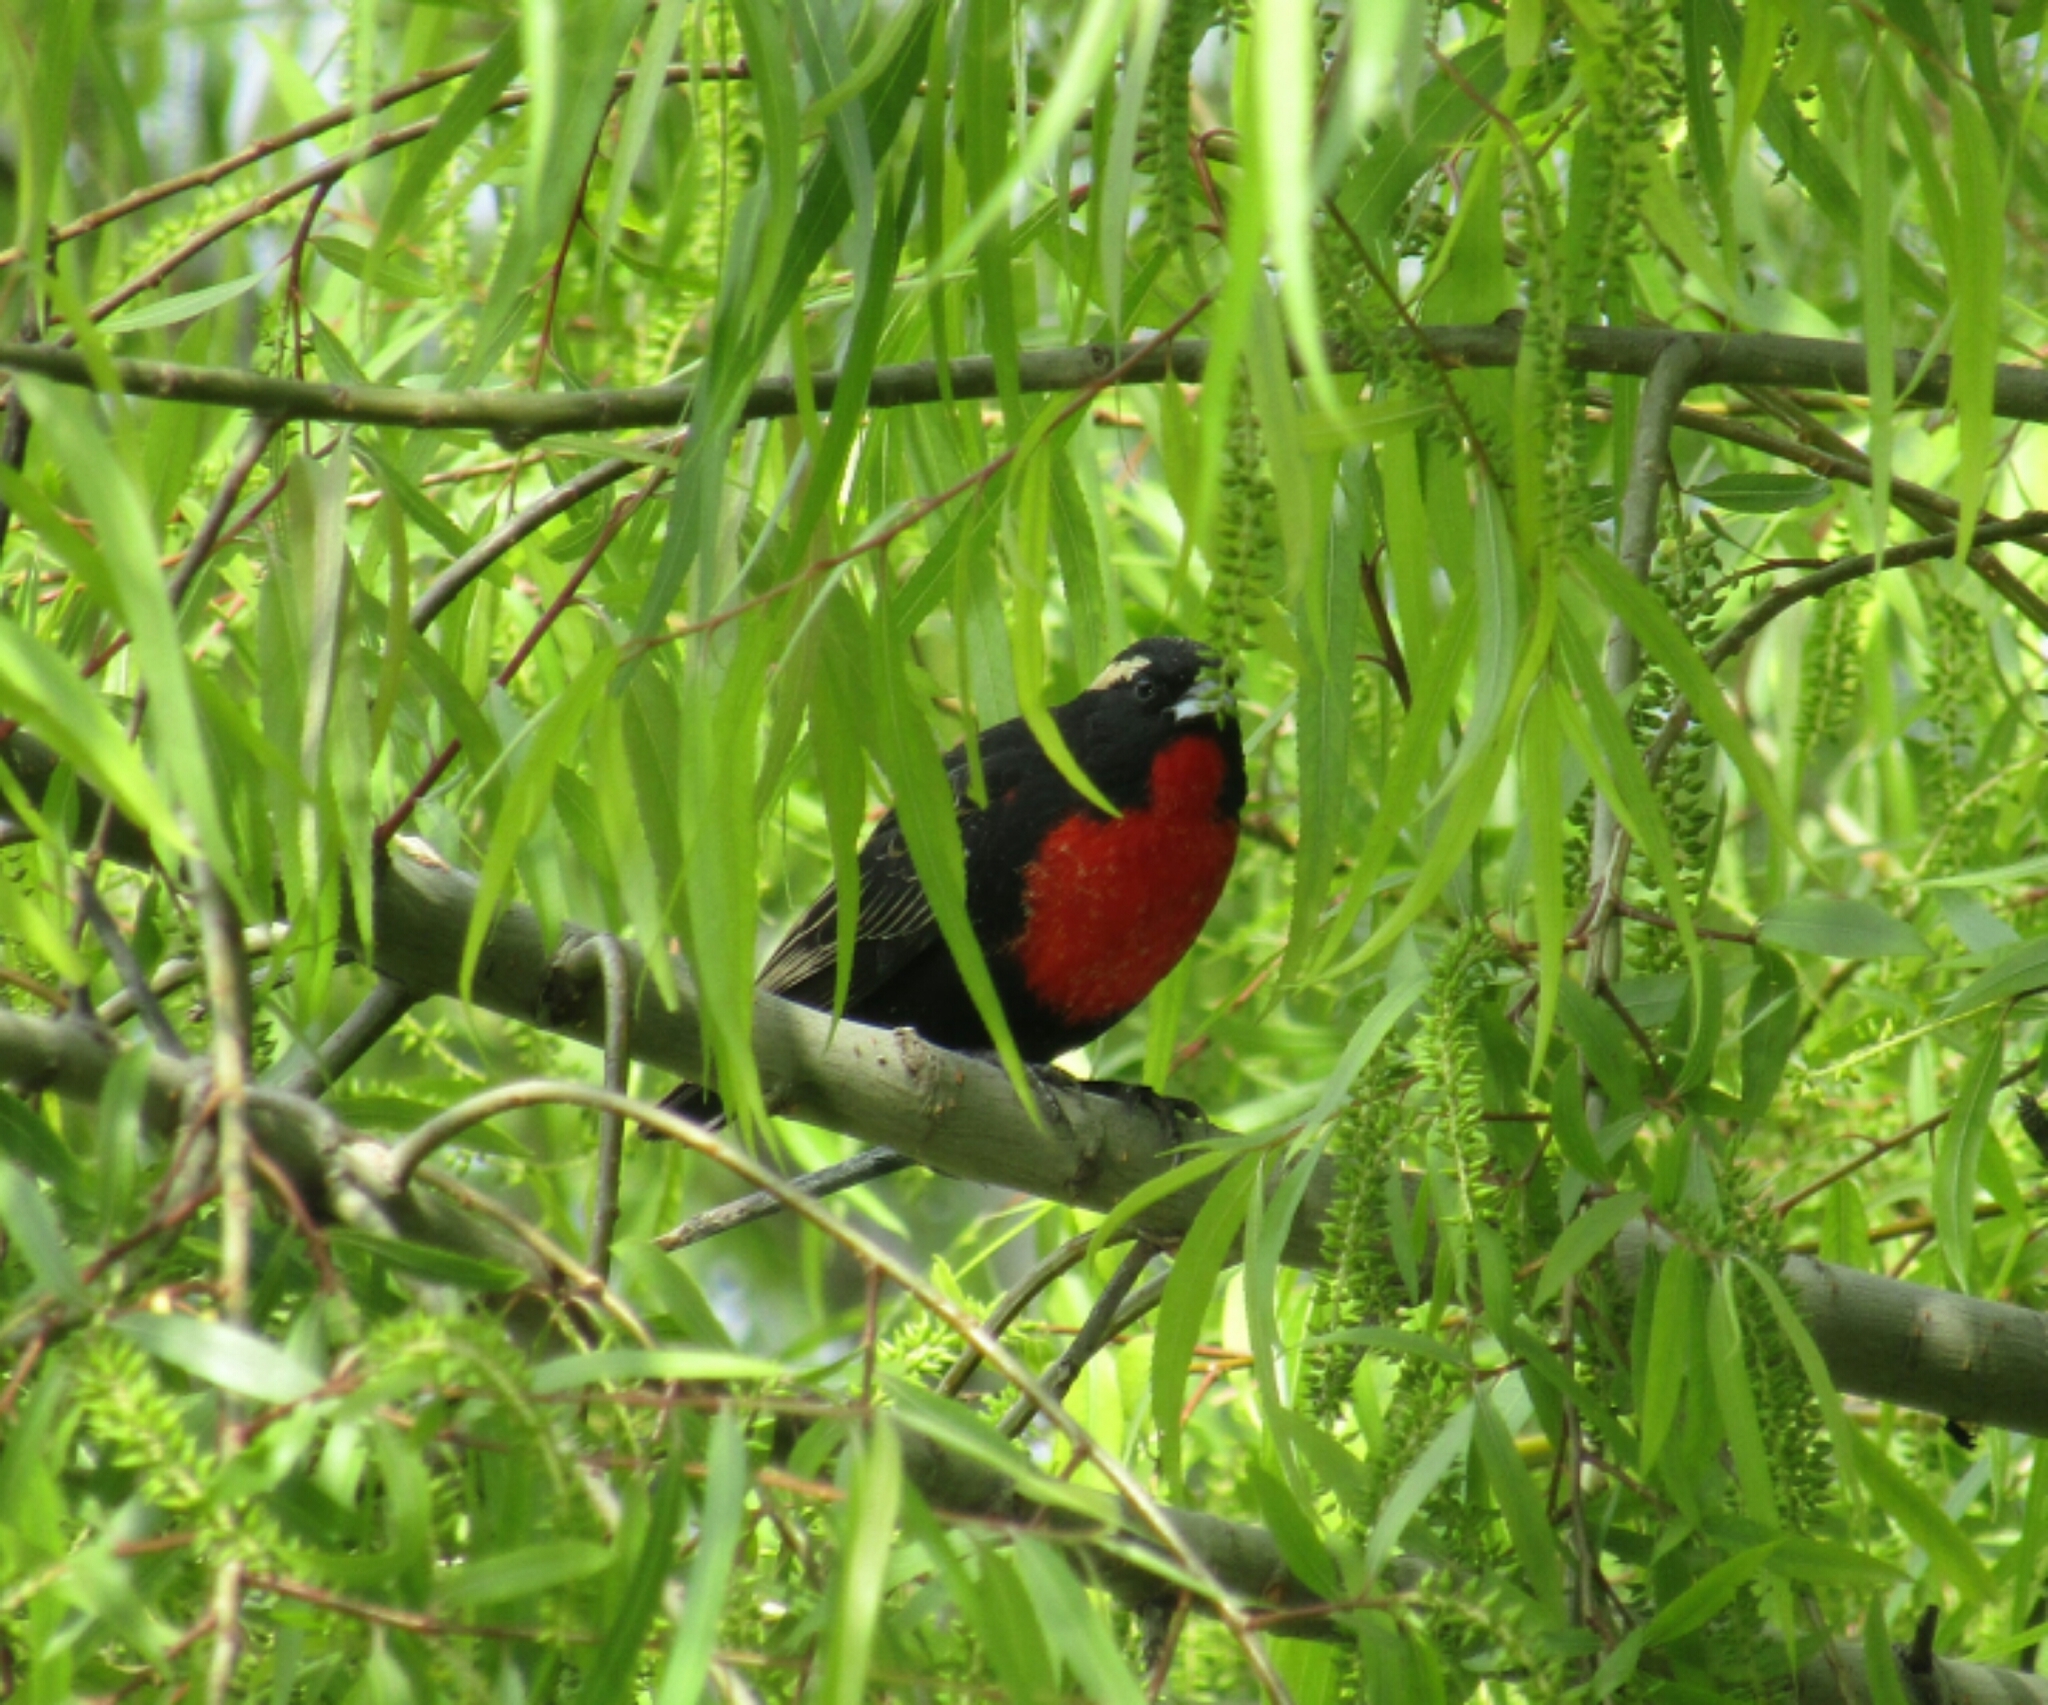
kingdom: Animalia
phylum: Chordata
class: Aves
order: Passeriformes
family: Icteridae
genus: Sturnella
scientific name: Sturnella superciliaris
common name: White-browed blackbird
